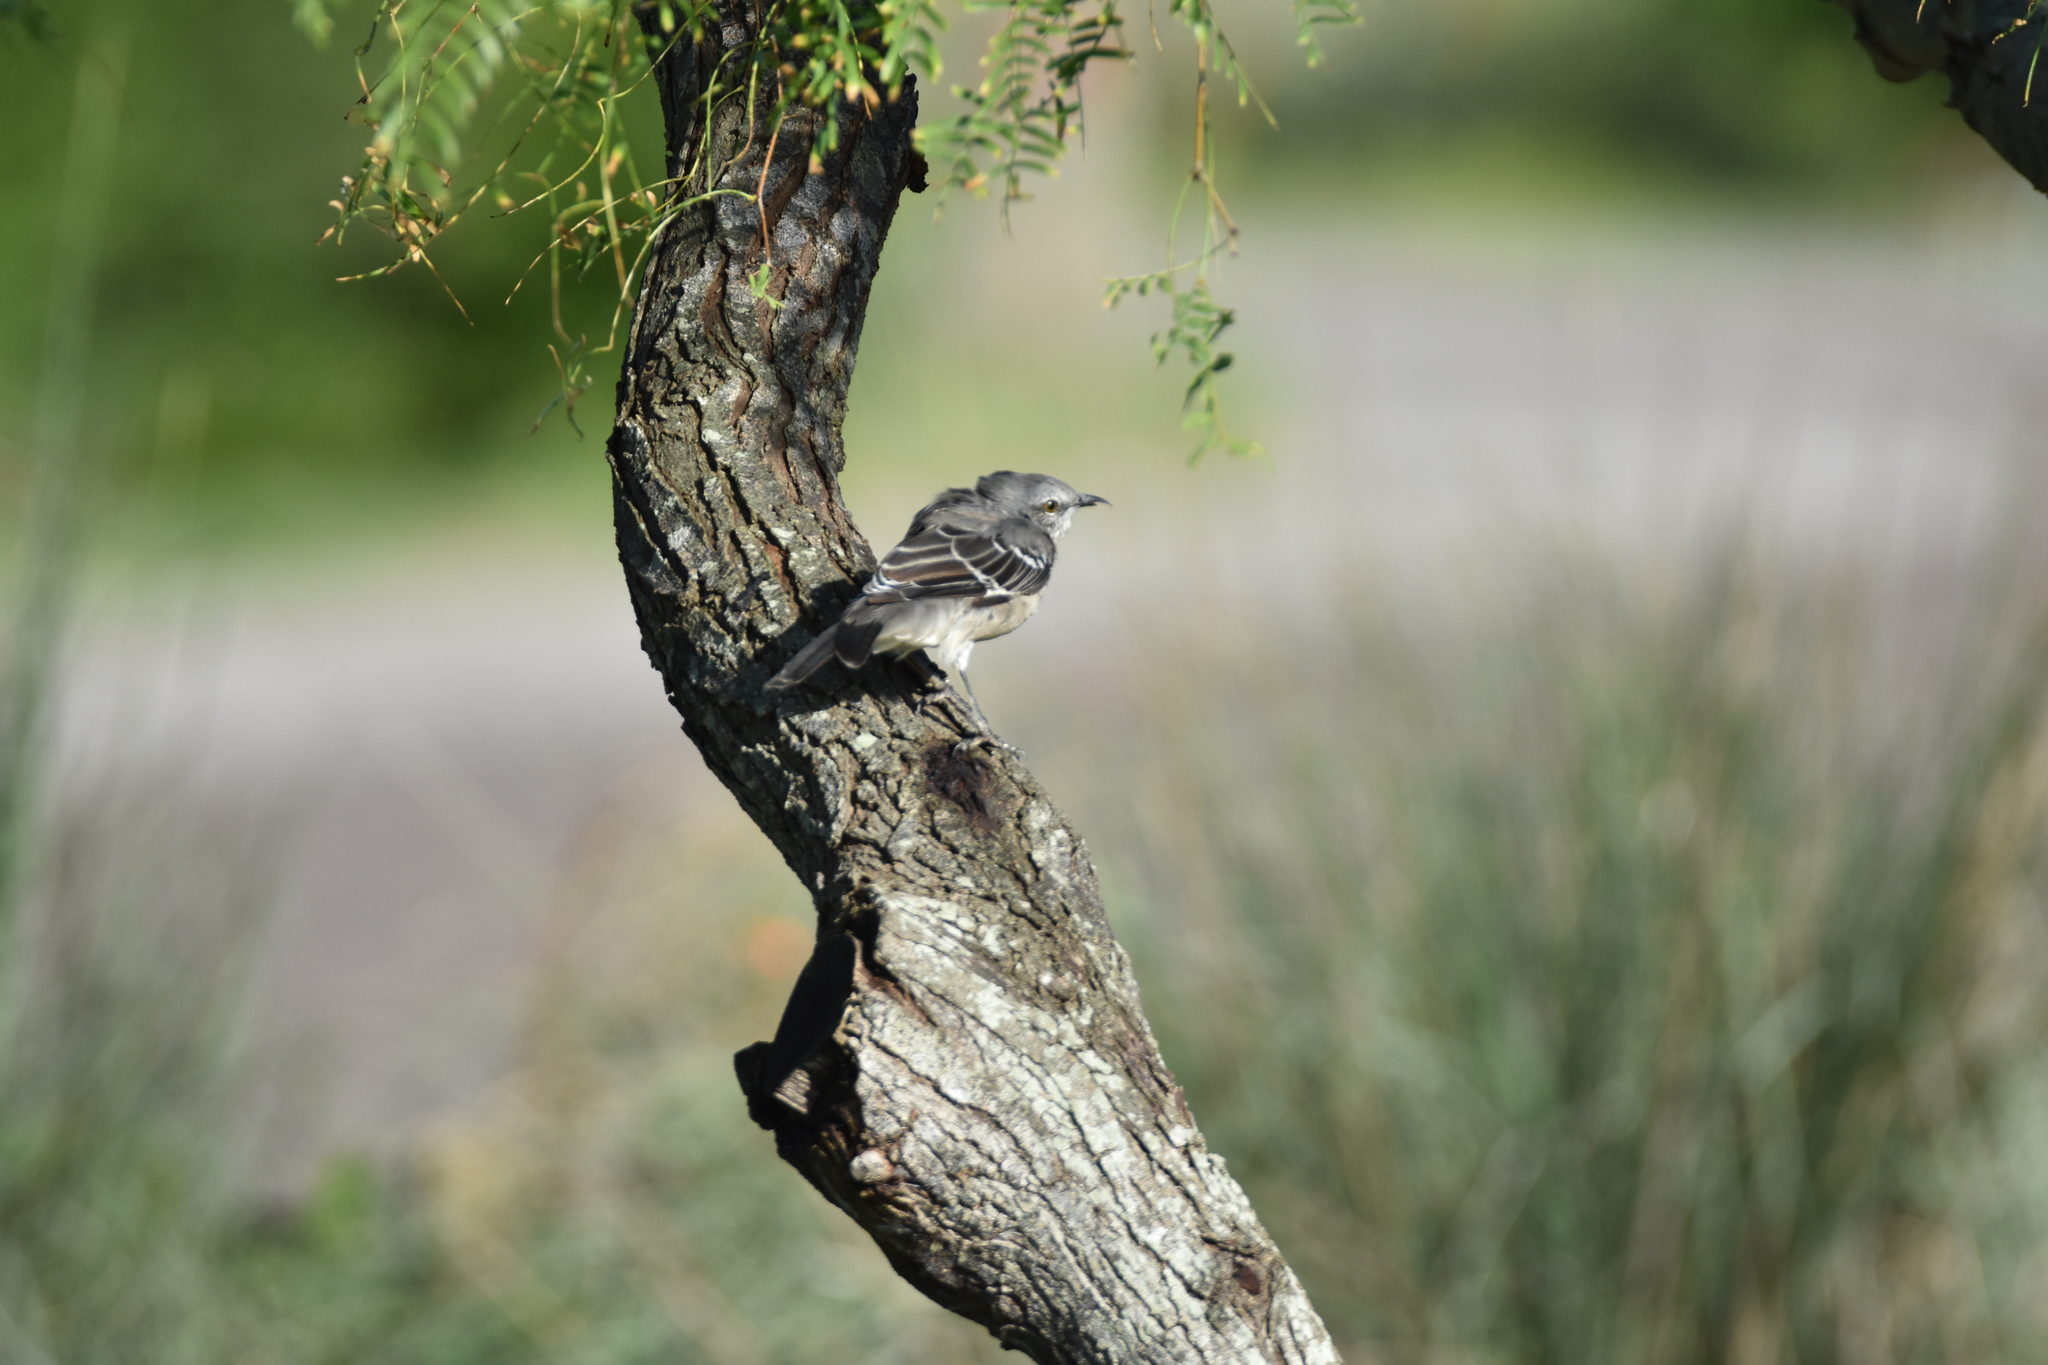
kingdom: Animalia
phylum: Chordata
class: Aves
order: Passeriformes
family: Mimidae
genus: Mimus
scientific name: Mimus polyglottos
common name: Northern mockingbird
